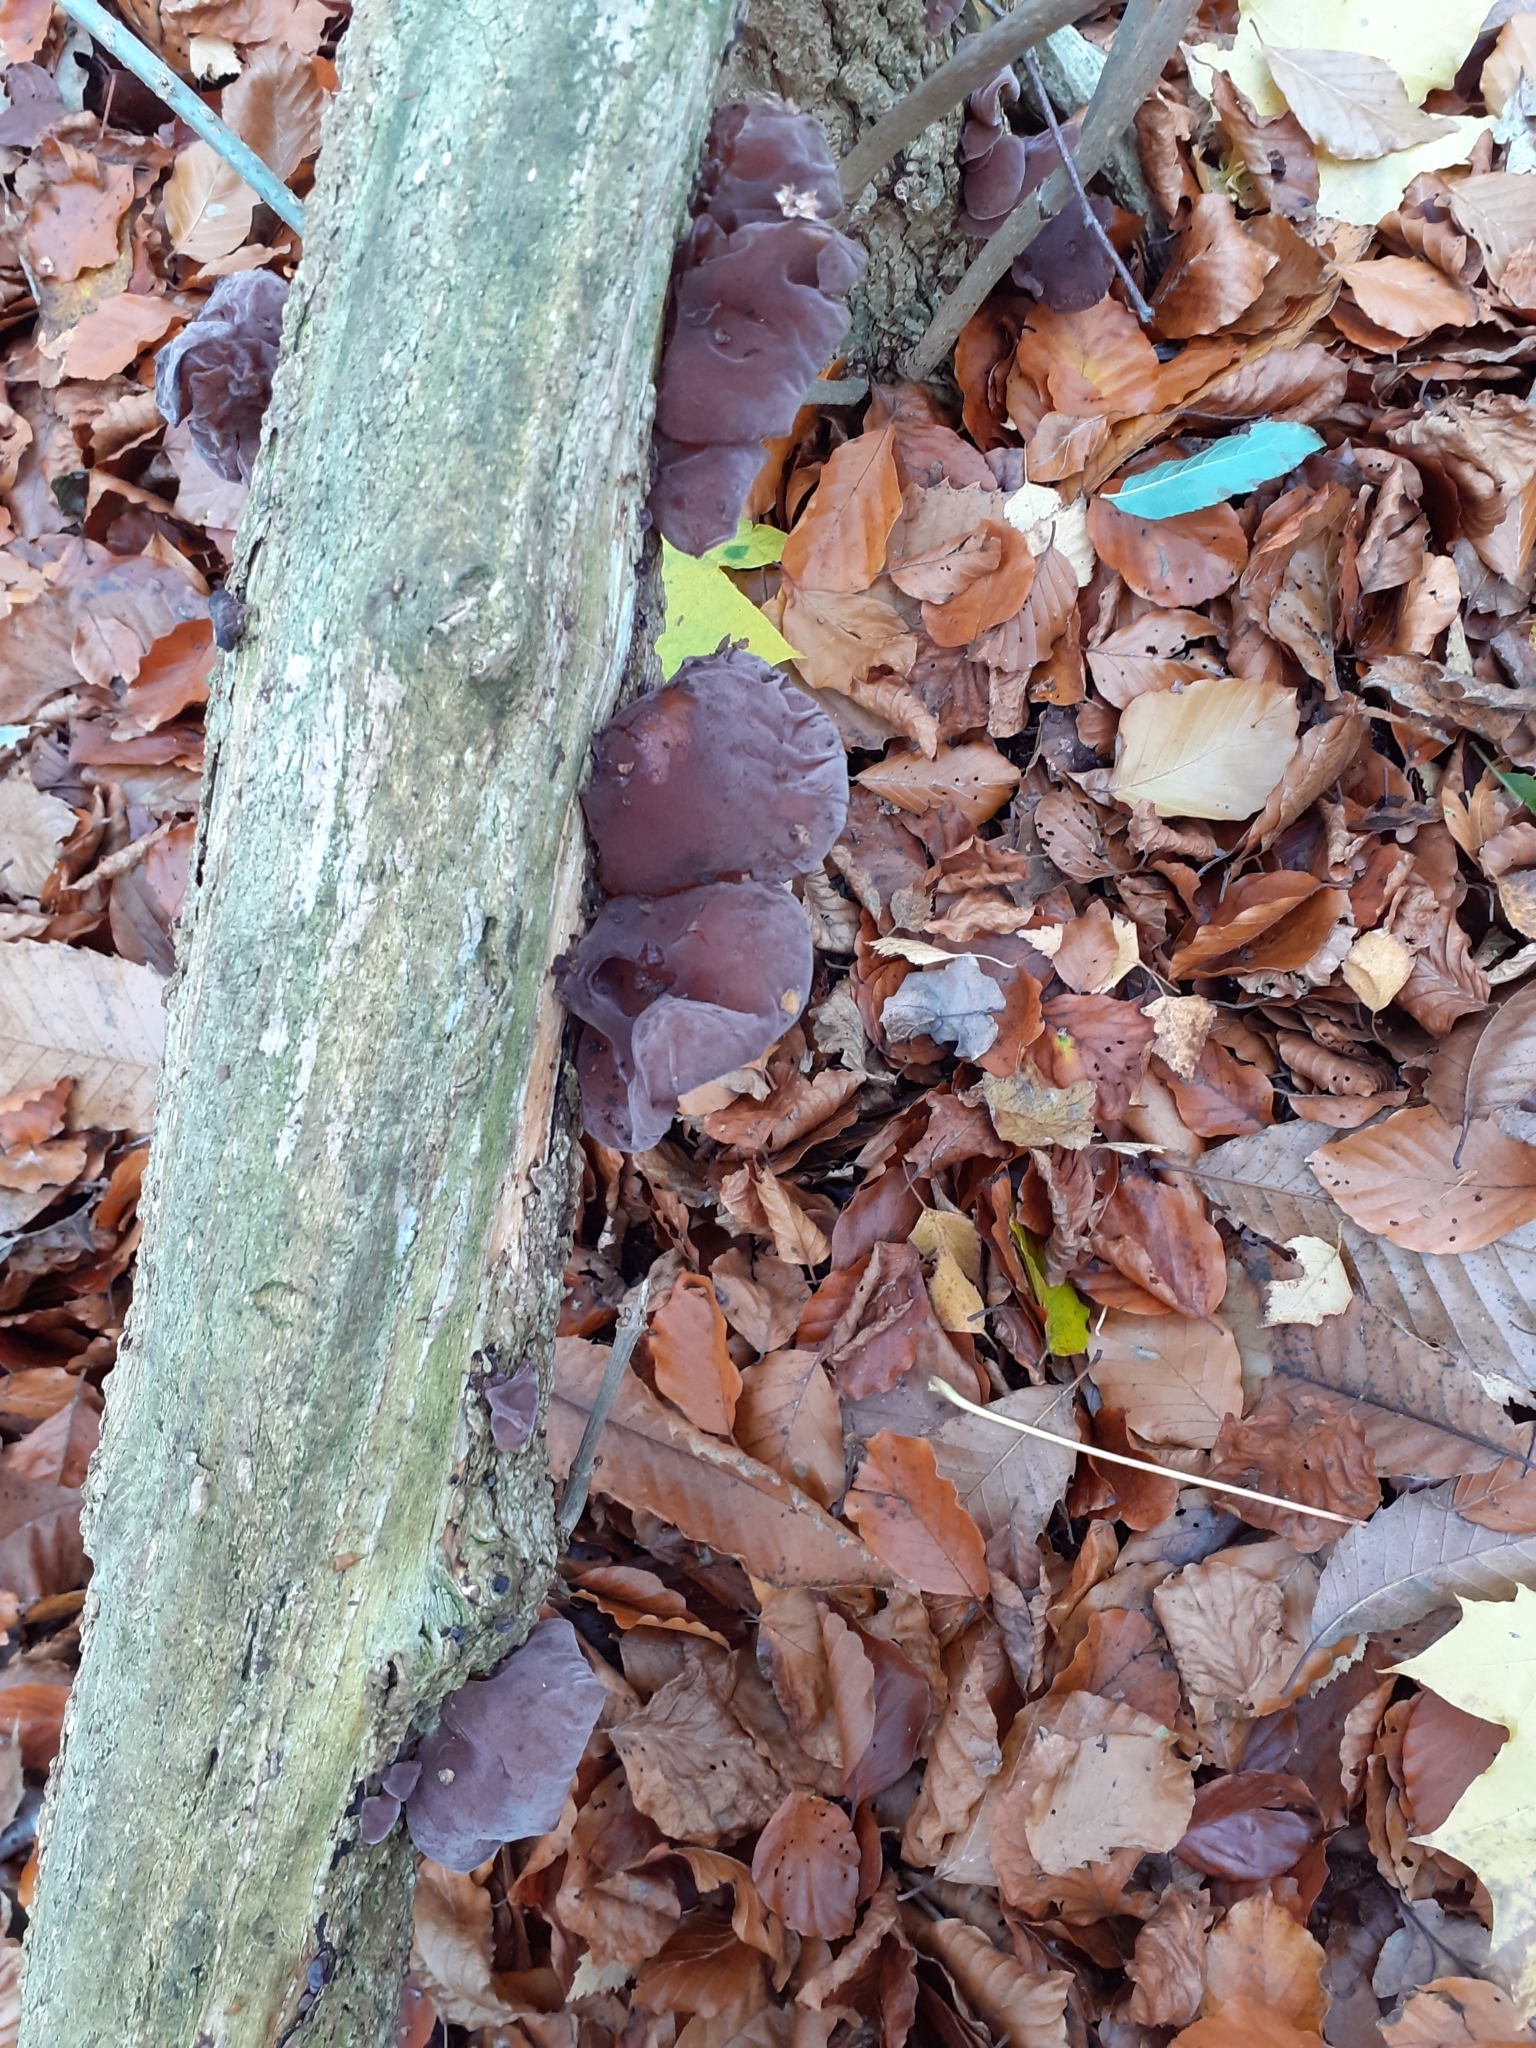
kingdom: Fungi
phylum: Basidiomycota
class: Agaricomycetes
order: Auriculariales
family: Auriculariaceae
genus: Auricularia
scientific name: Auricularia auricula-judae
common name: Jelly ear
